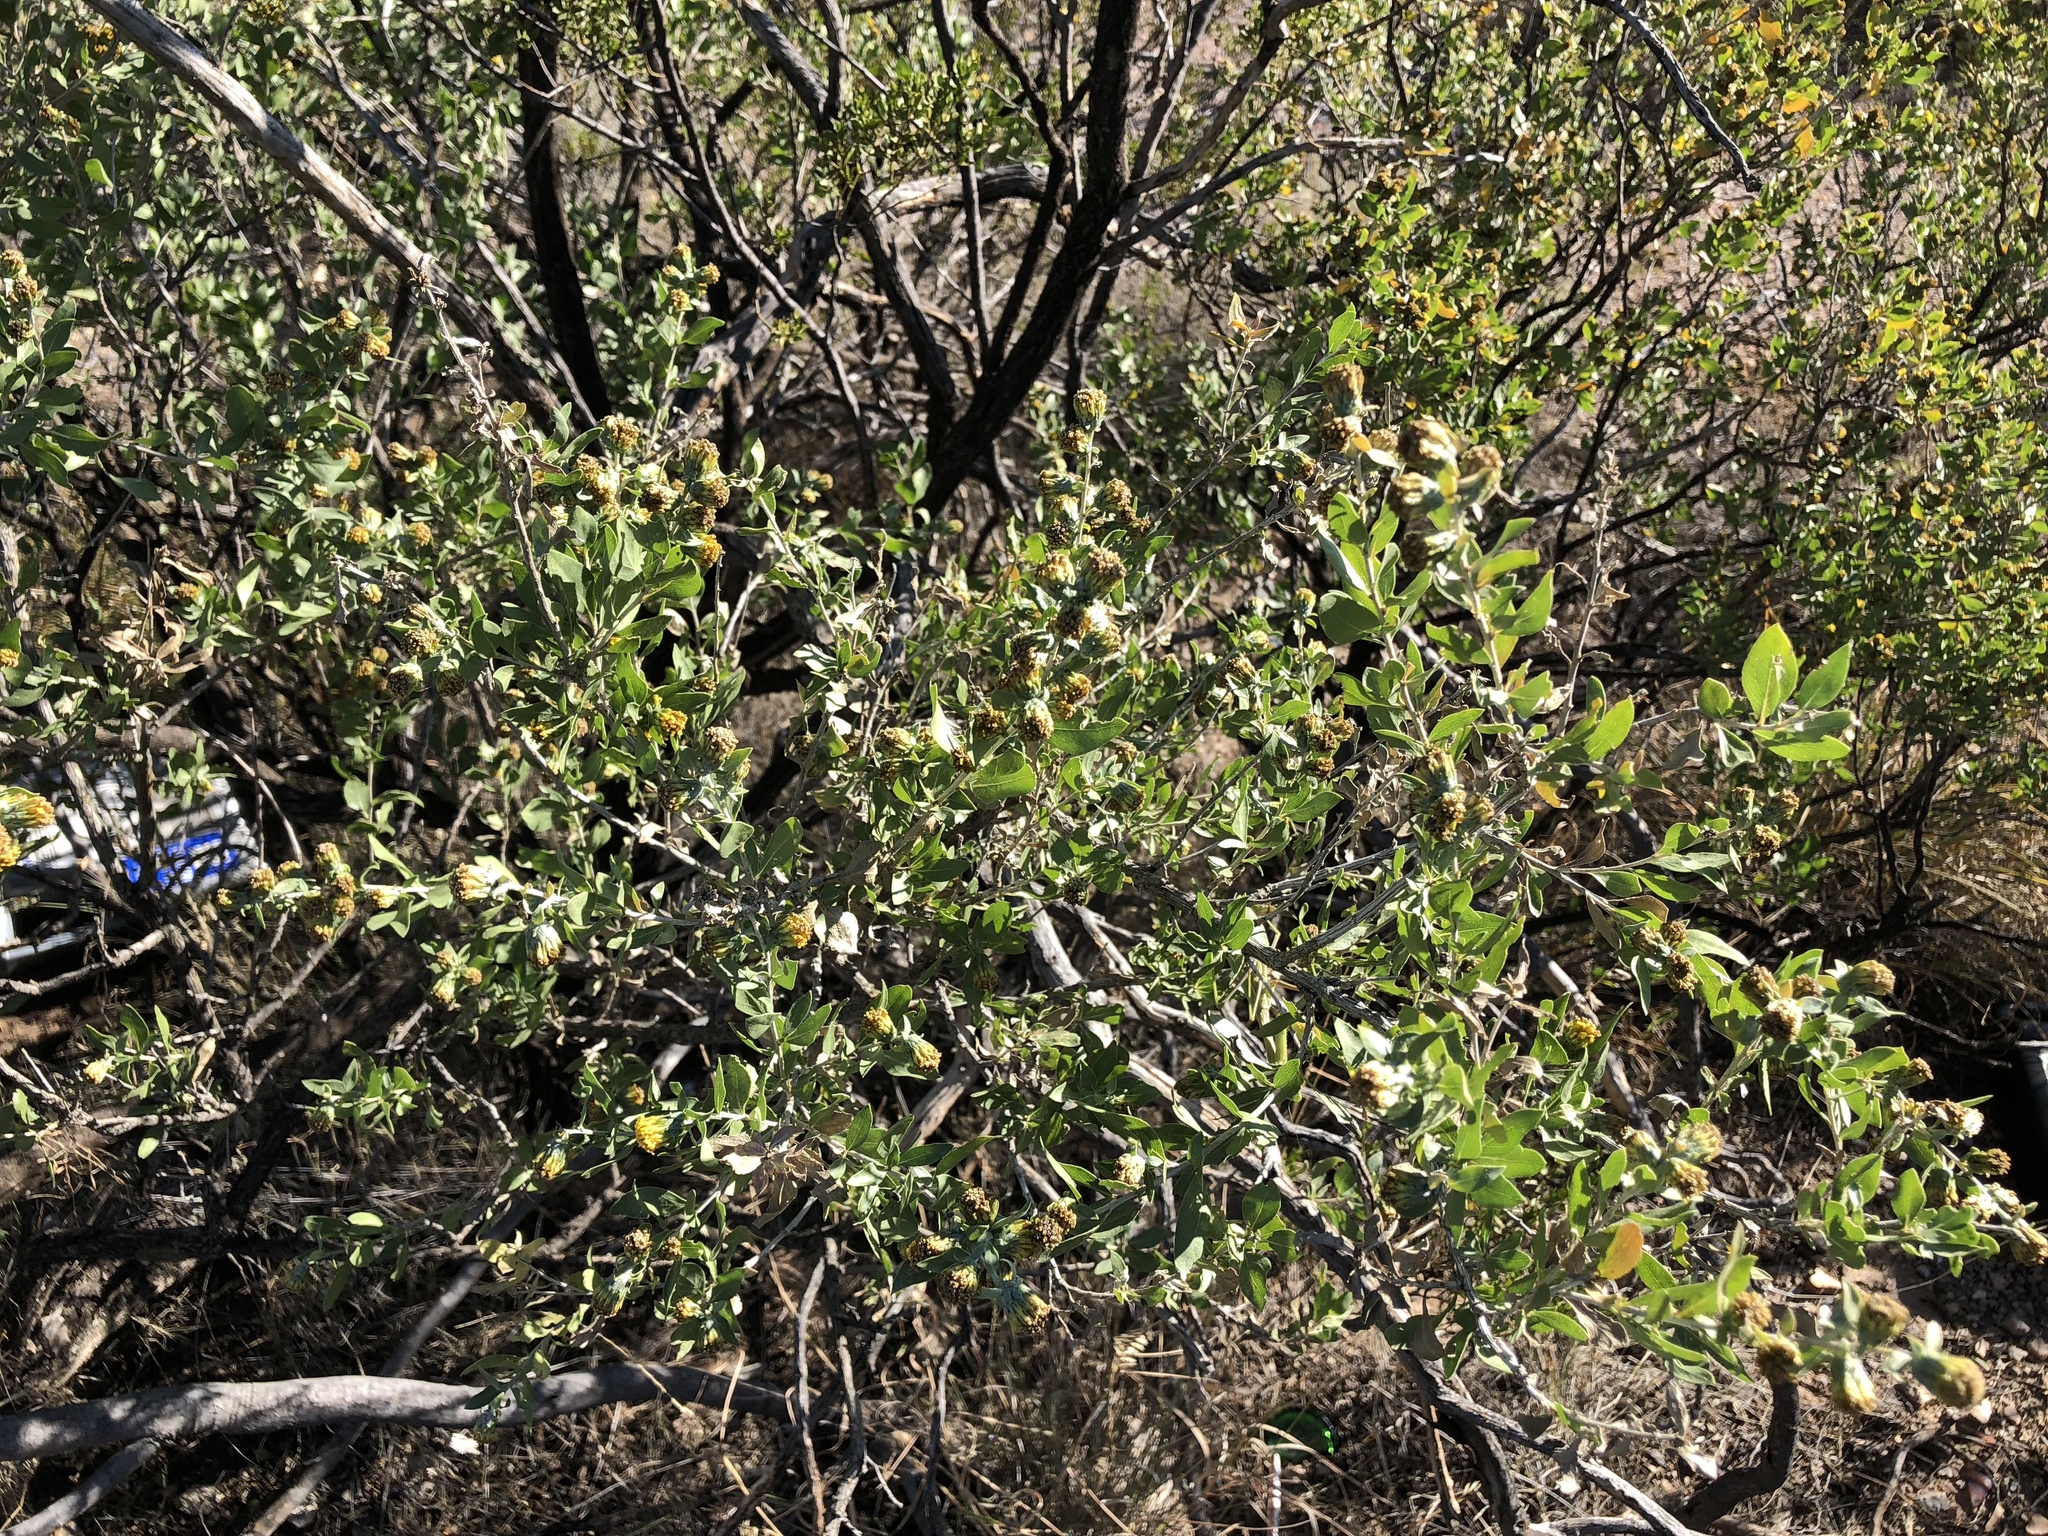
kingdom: Plantae
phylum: Tracheophyta
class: Magnoliopsida
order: Asterales
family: Asteraceae
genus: Flourensia
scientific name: Flourensia cernua
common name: Varnishbush
